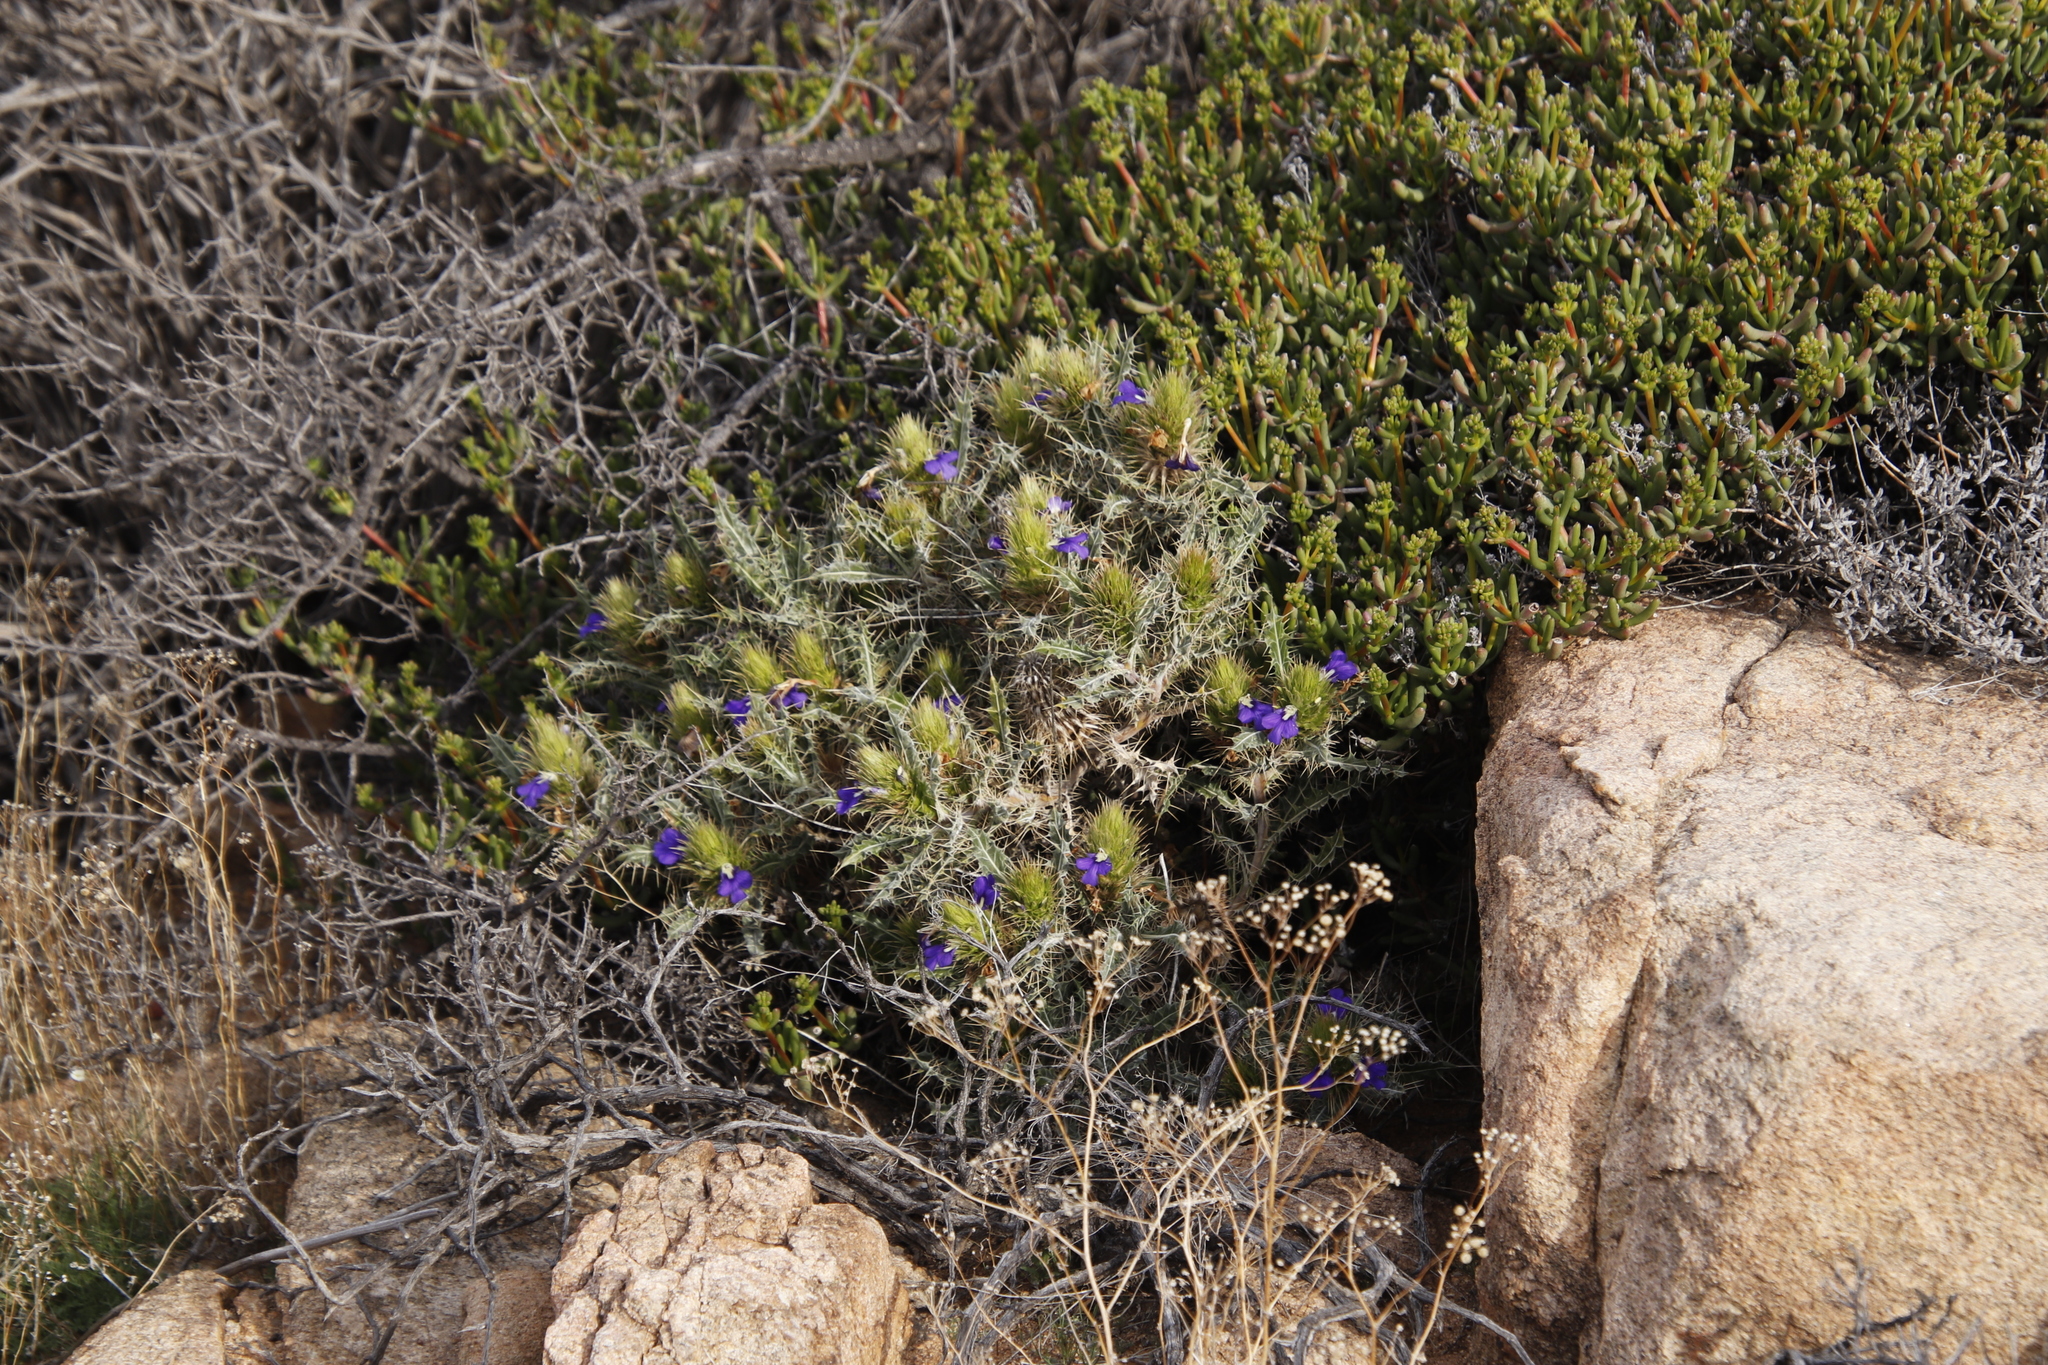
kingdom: Plantae
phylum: Tracheophyta
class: Magnoliopsida
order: Lamiales
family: Acanthaceae
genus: Acanthopsis
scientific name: Acanthopsis horrida
